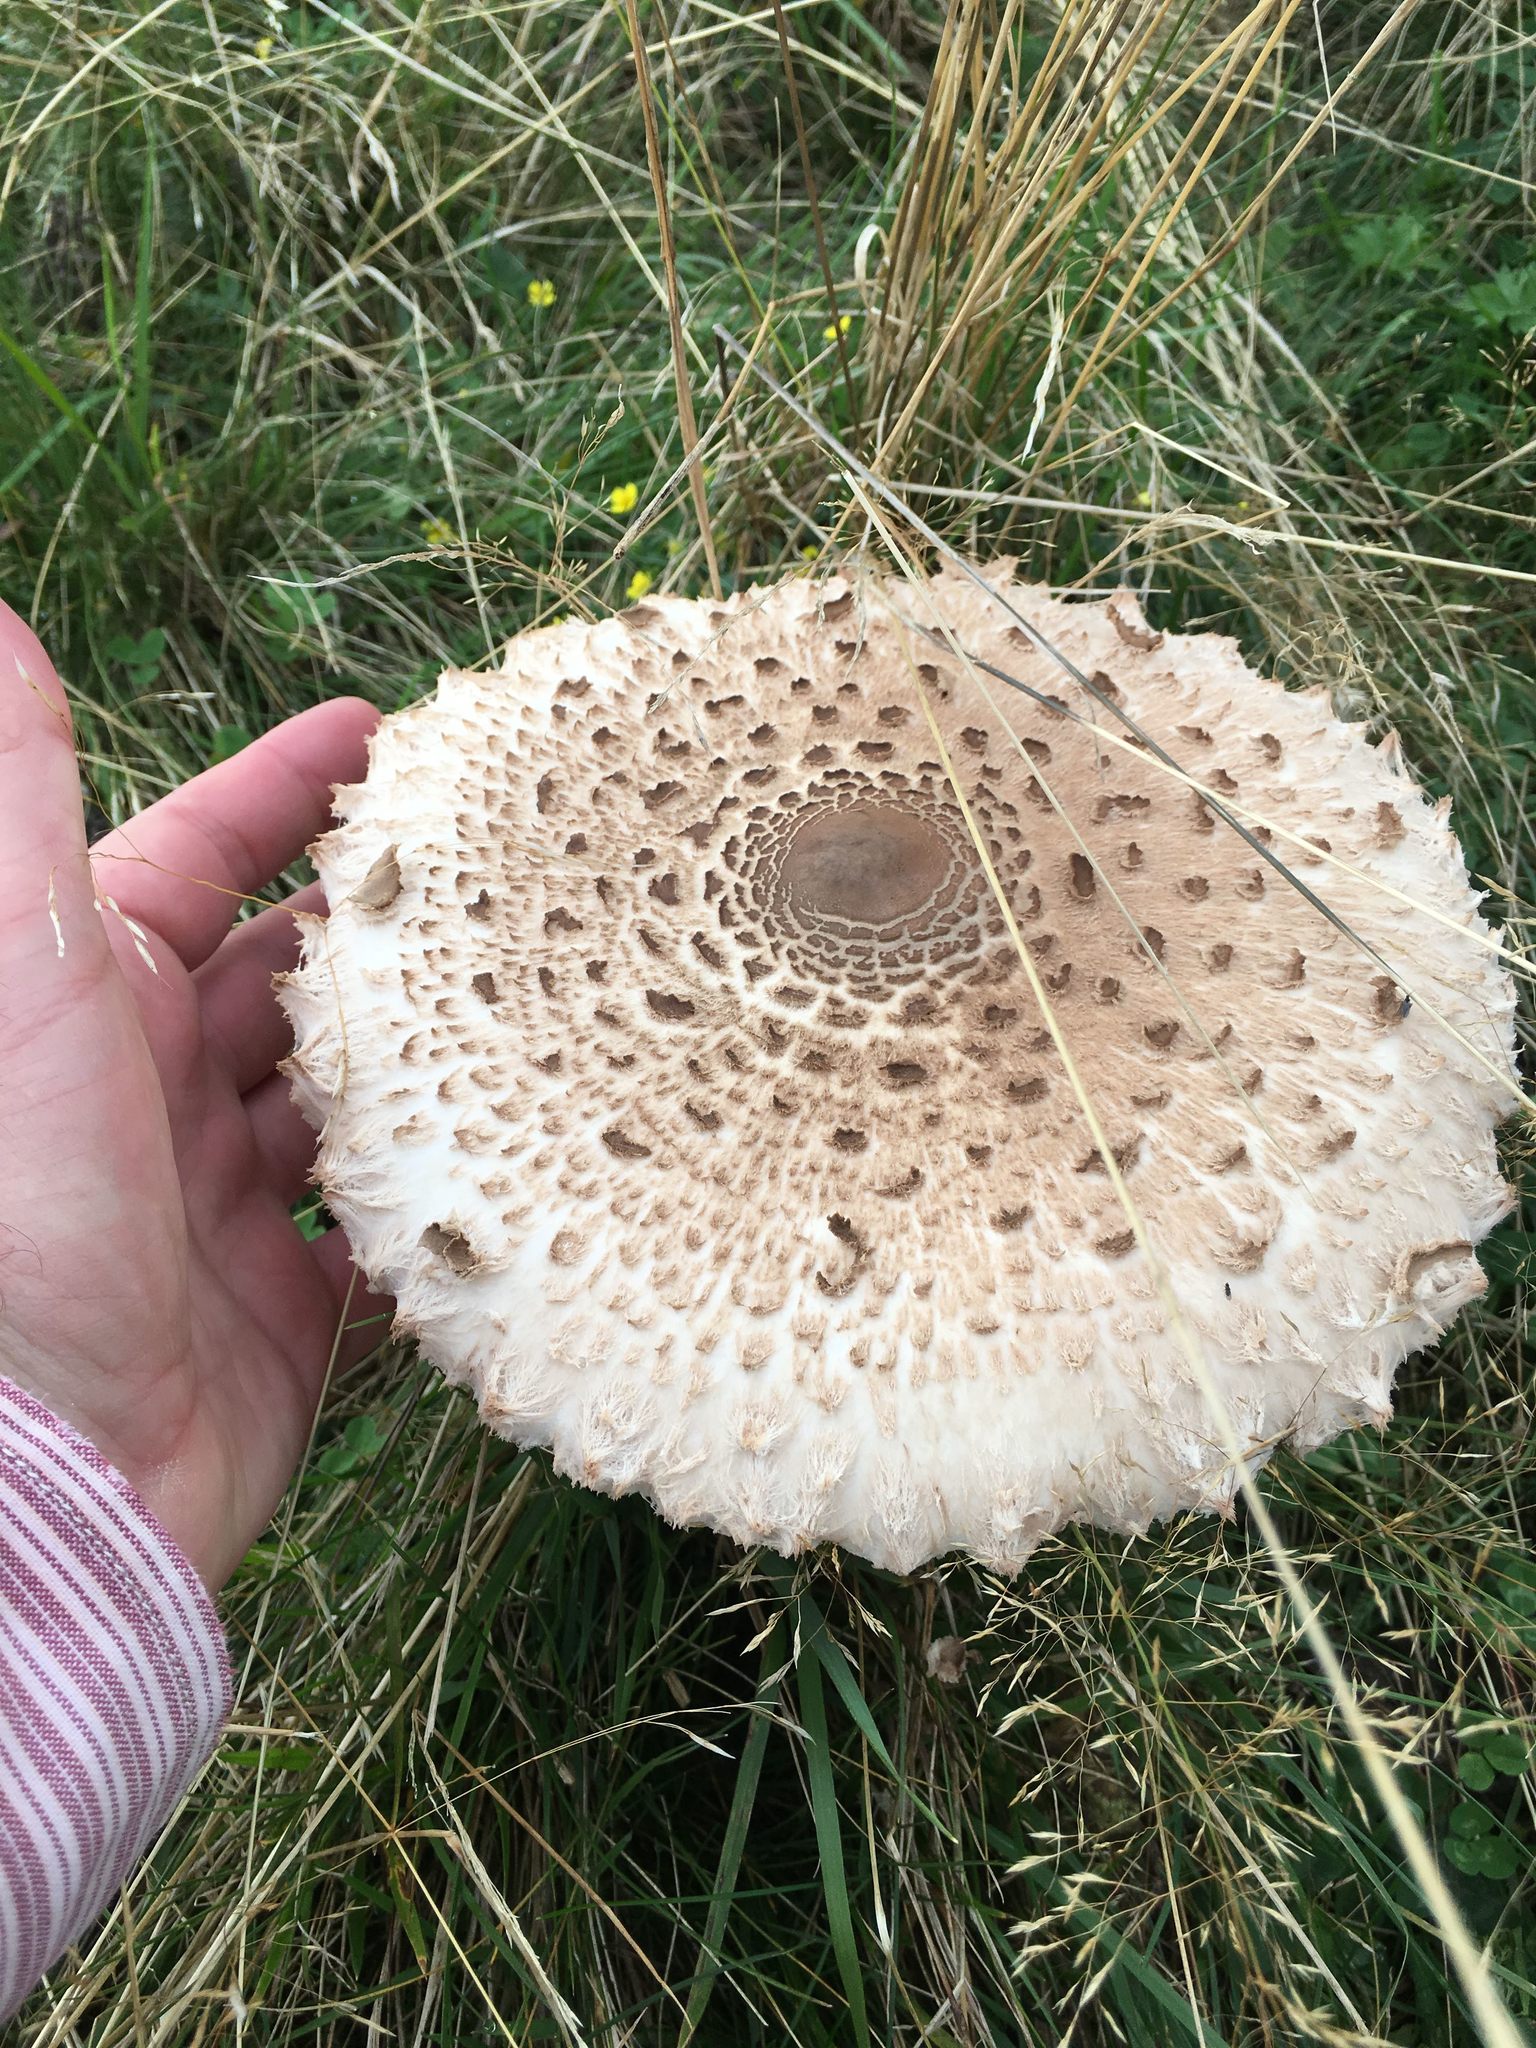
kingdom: Fungi
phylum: Basidiomycota
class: Agaricomycetes
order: Agaricales
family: Agaricaceae
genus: Macrolepiota
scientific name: Macrolepiota procera
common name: Parasol
